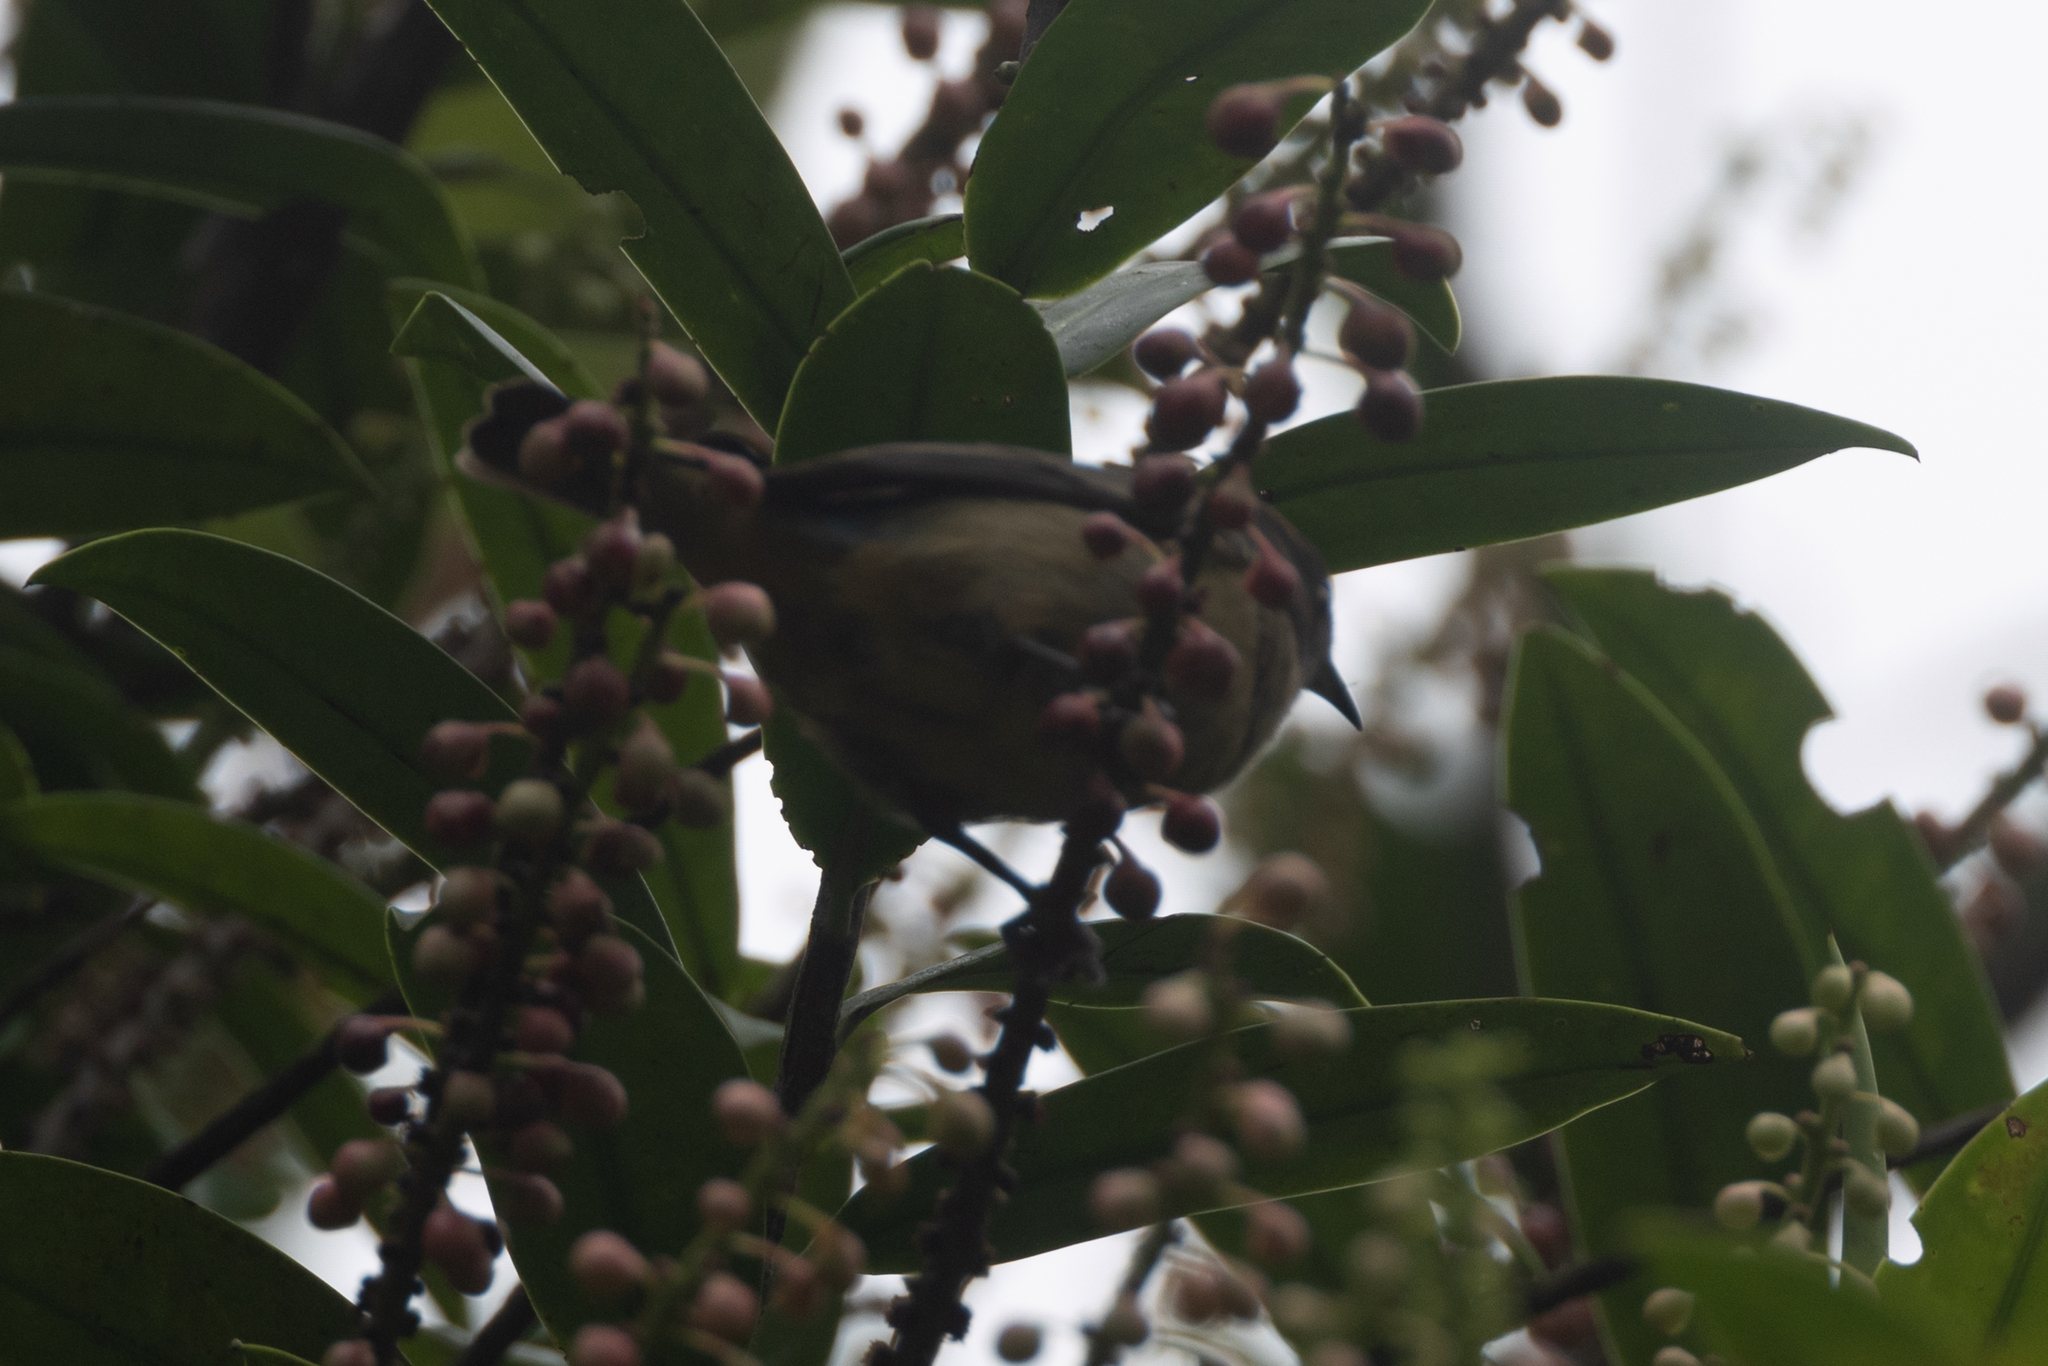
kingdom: Animalia
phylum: Chordata
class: Aves
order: Passeriformes
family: Thraupidae
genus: Dacnis
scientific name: Dacnis venusta
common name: Scarlet-thighed dacnis
